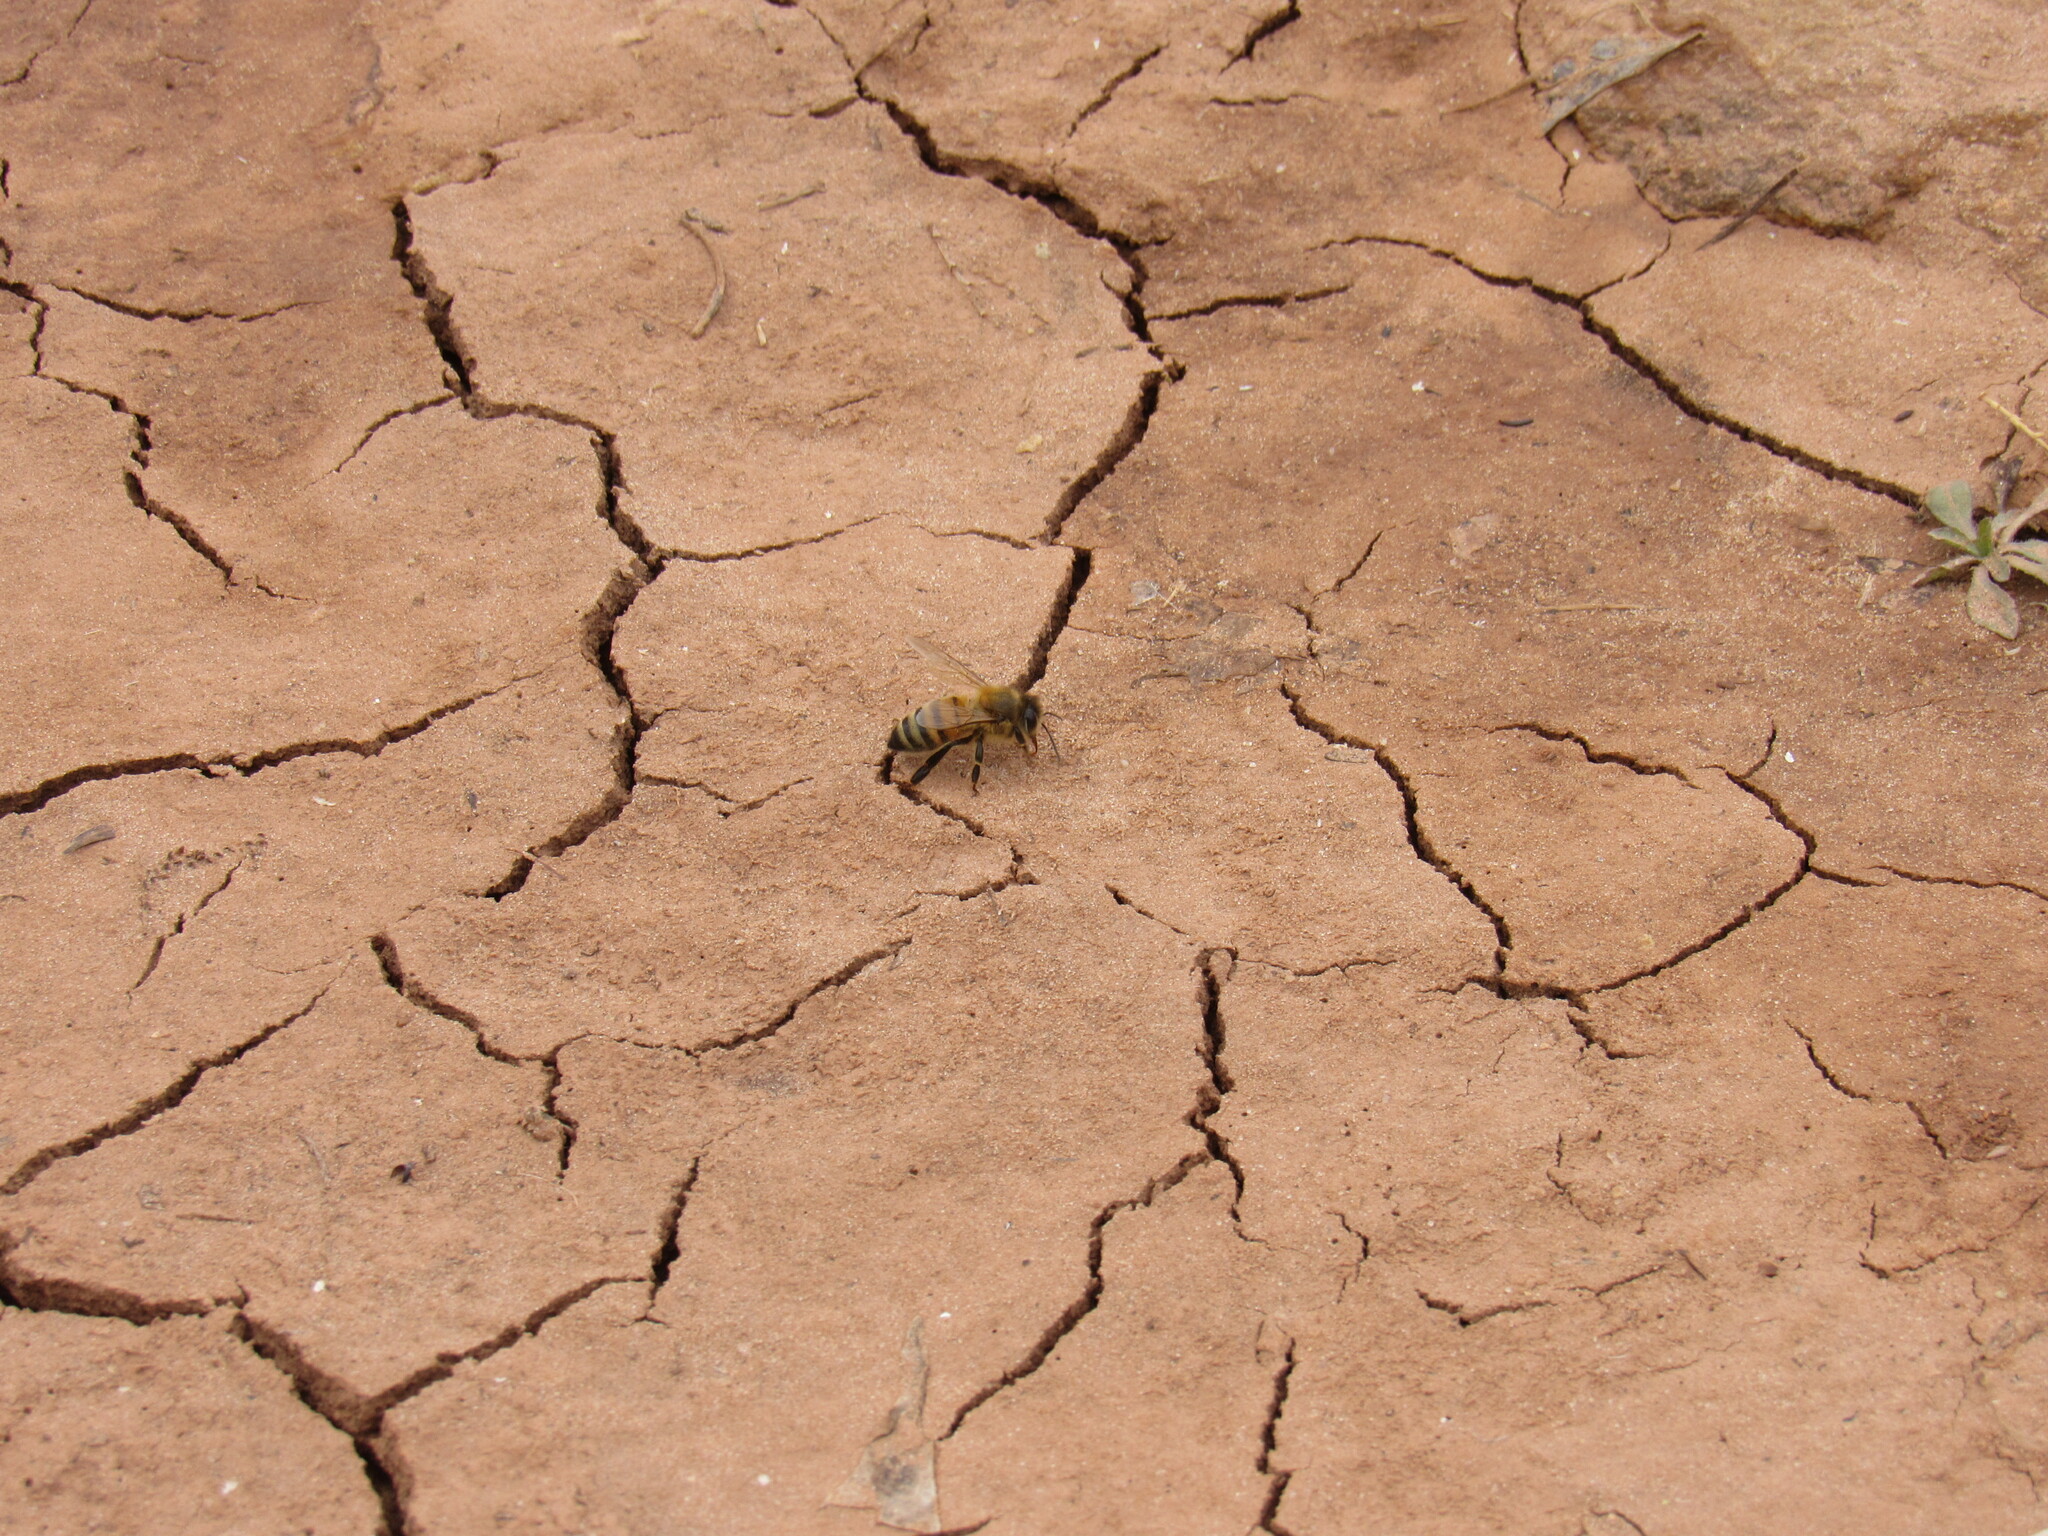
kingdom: Animalia
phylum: Arthropoda
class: Insecta
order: Hymenoptera
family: Apidae
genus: Apis
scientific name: Apis mellifera
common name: Honey bee
